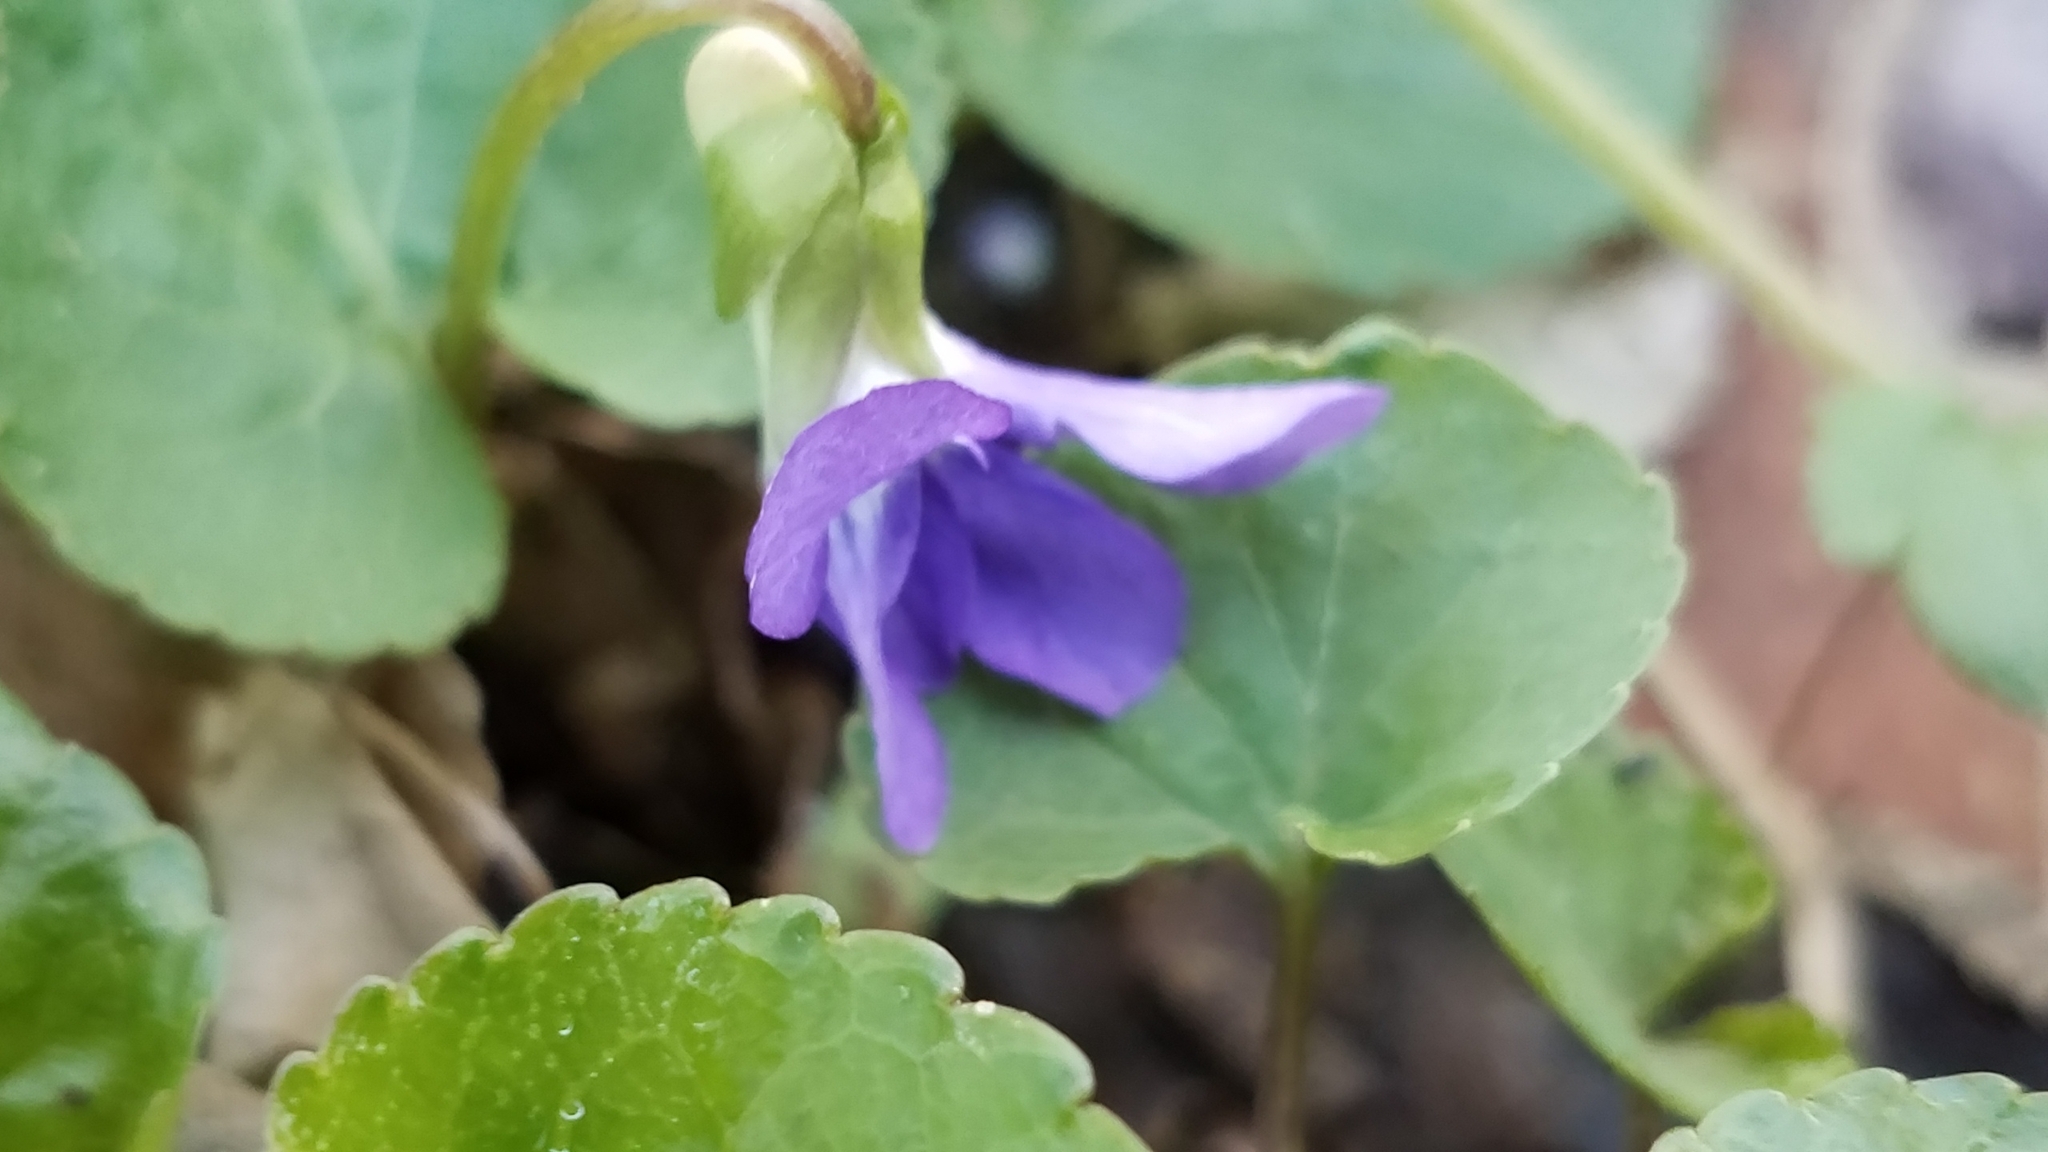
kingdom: Plantae
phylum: Tracheophyta
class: Magnoliopsida
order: Malpighiales
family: Violaceae
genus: Viola
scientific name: Viola sororia
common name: Dooryard violet
